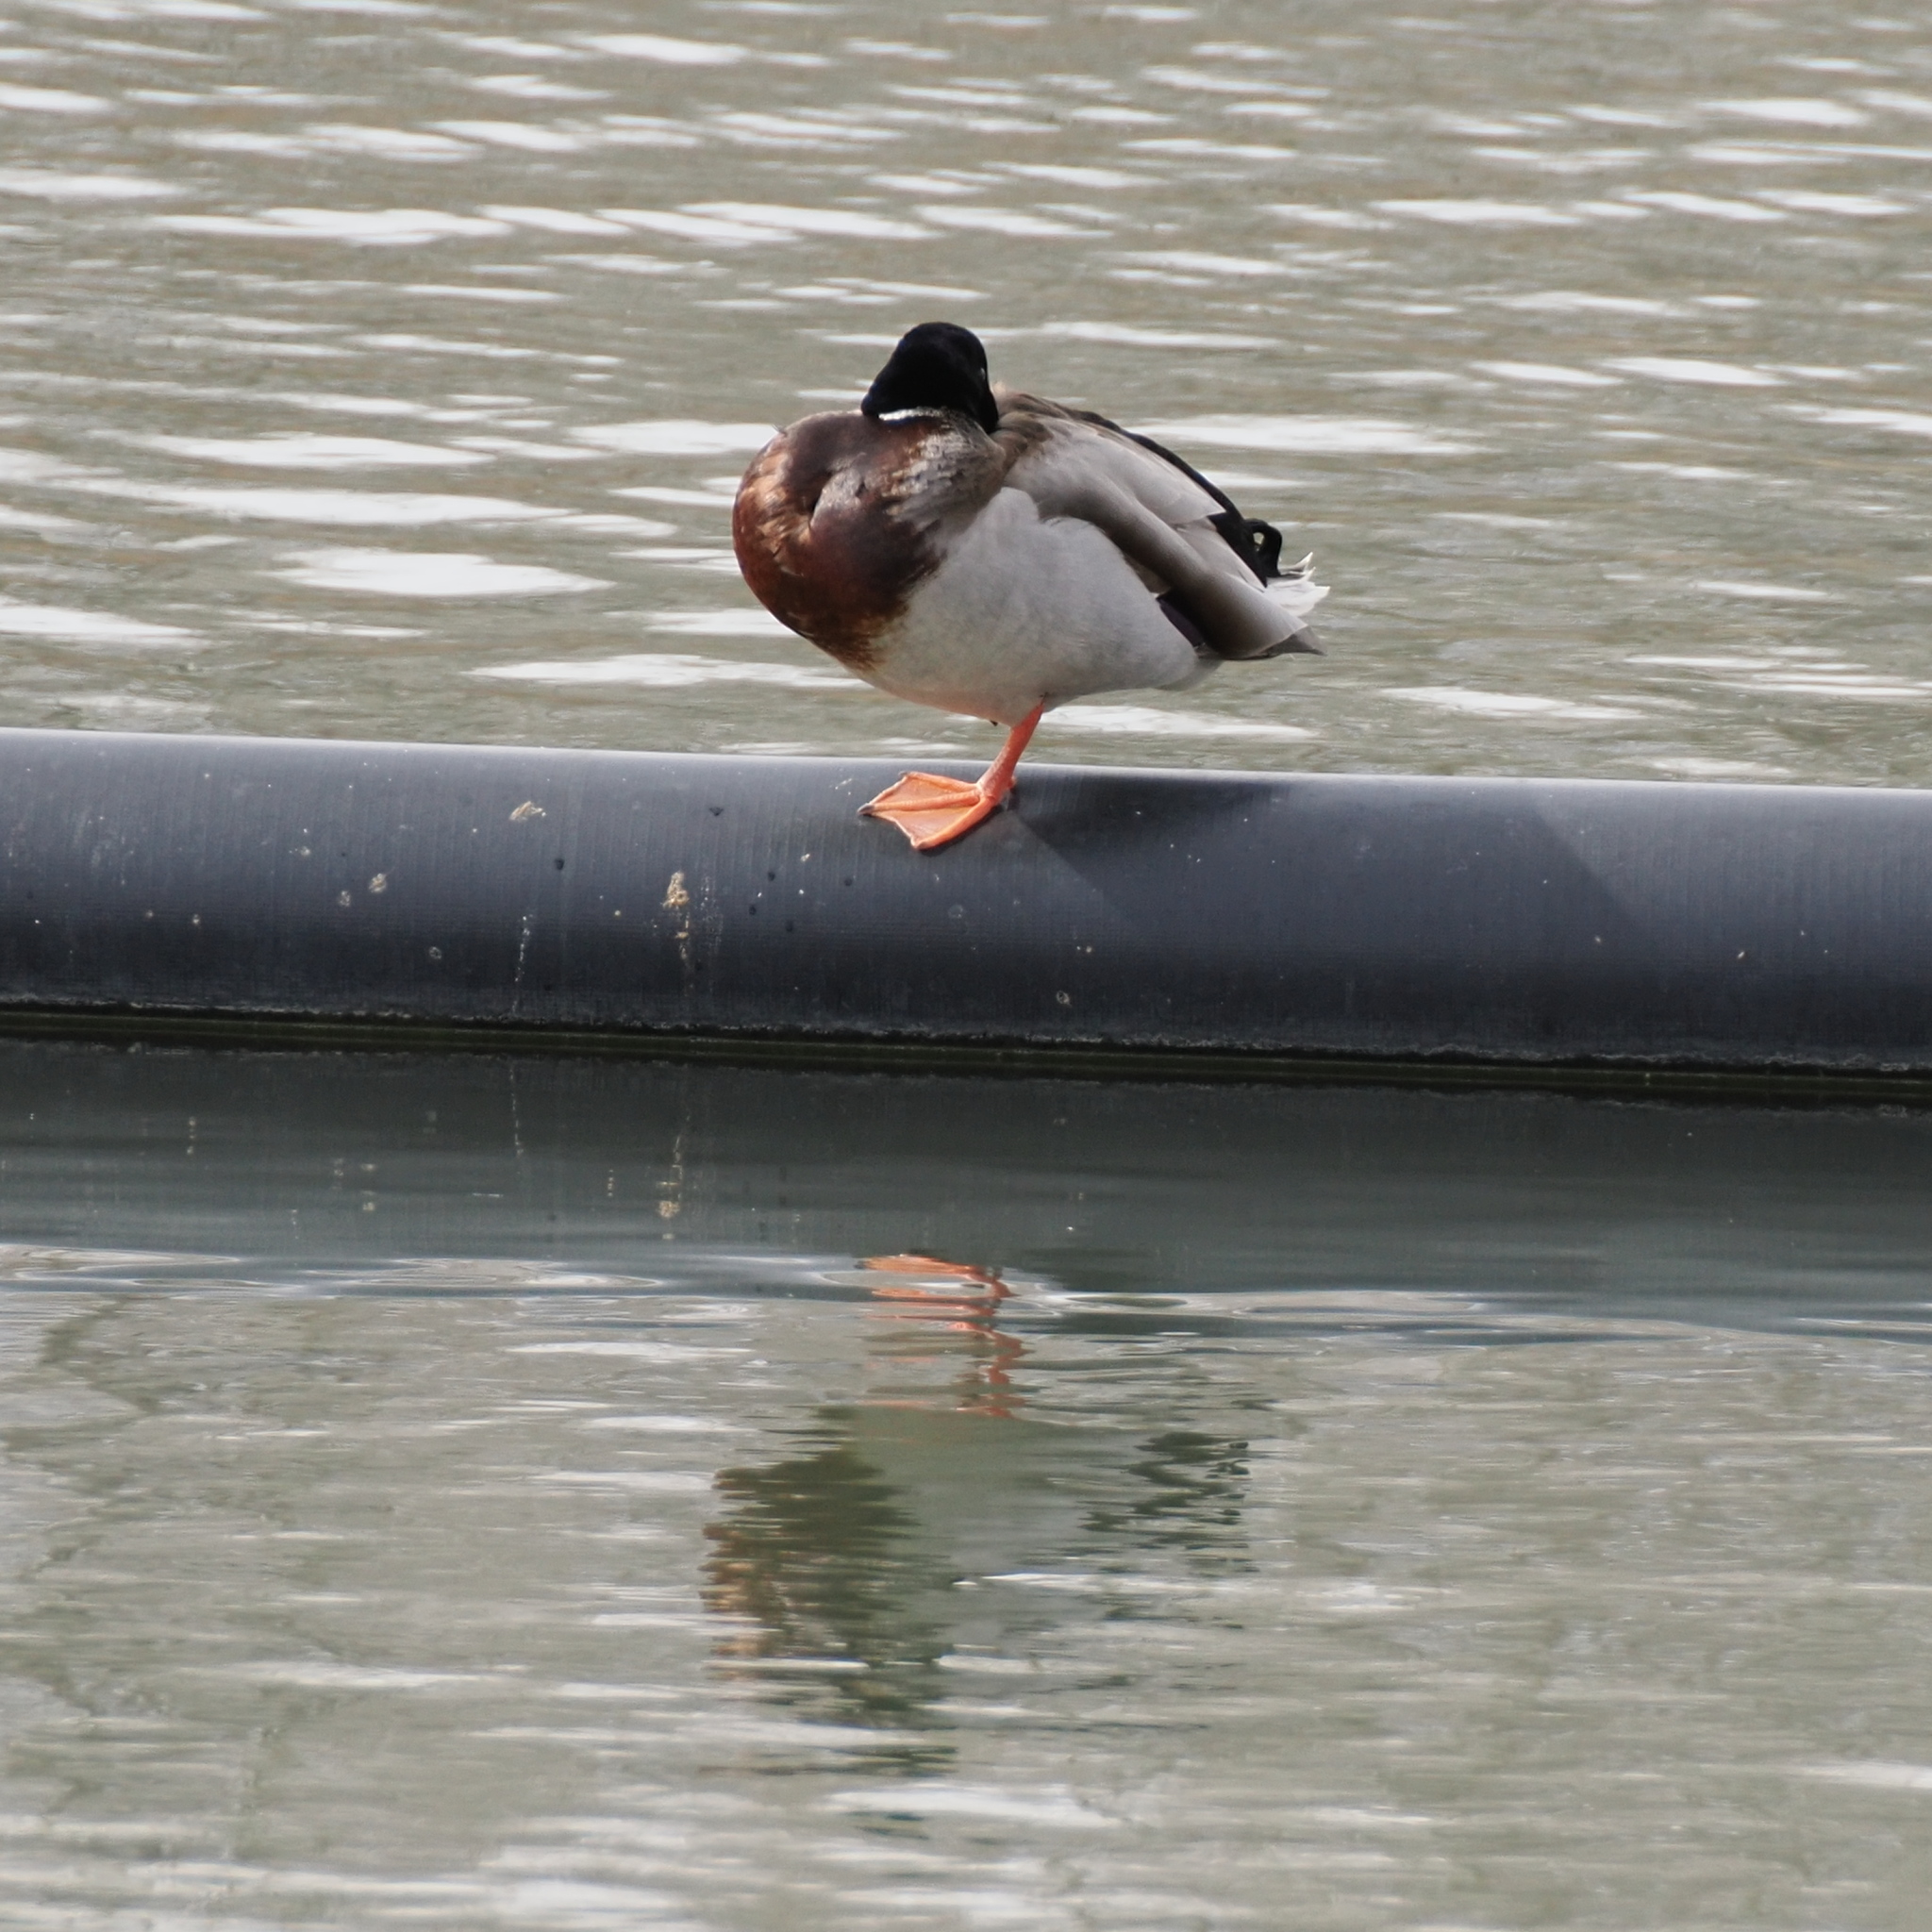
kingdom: Animalia
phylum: Chordata
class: Aves
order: Anseriformes
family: Anatidae
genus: Anas
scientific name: Anas platyrhynchos
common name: Mallard
